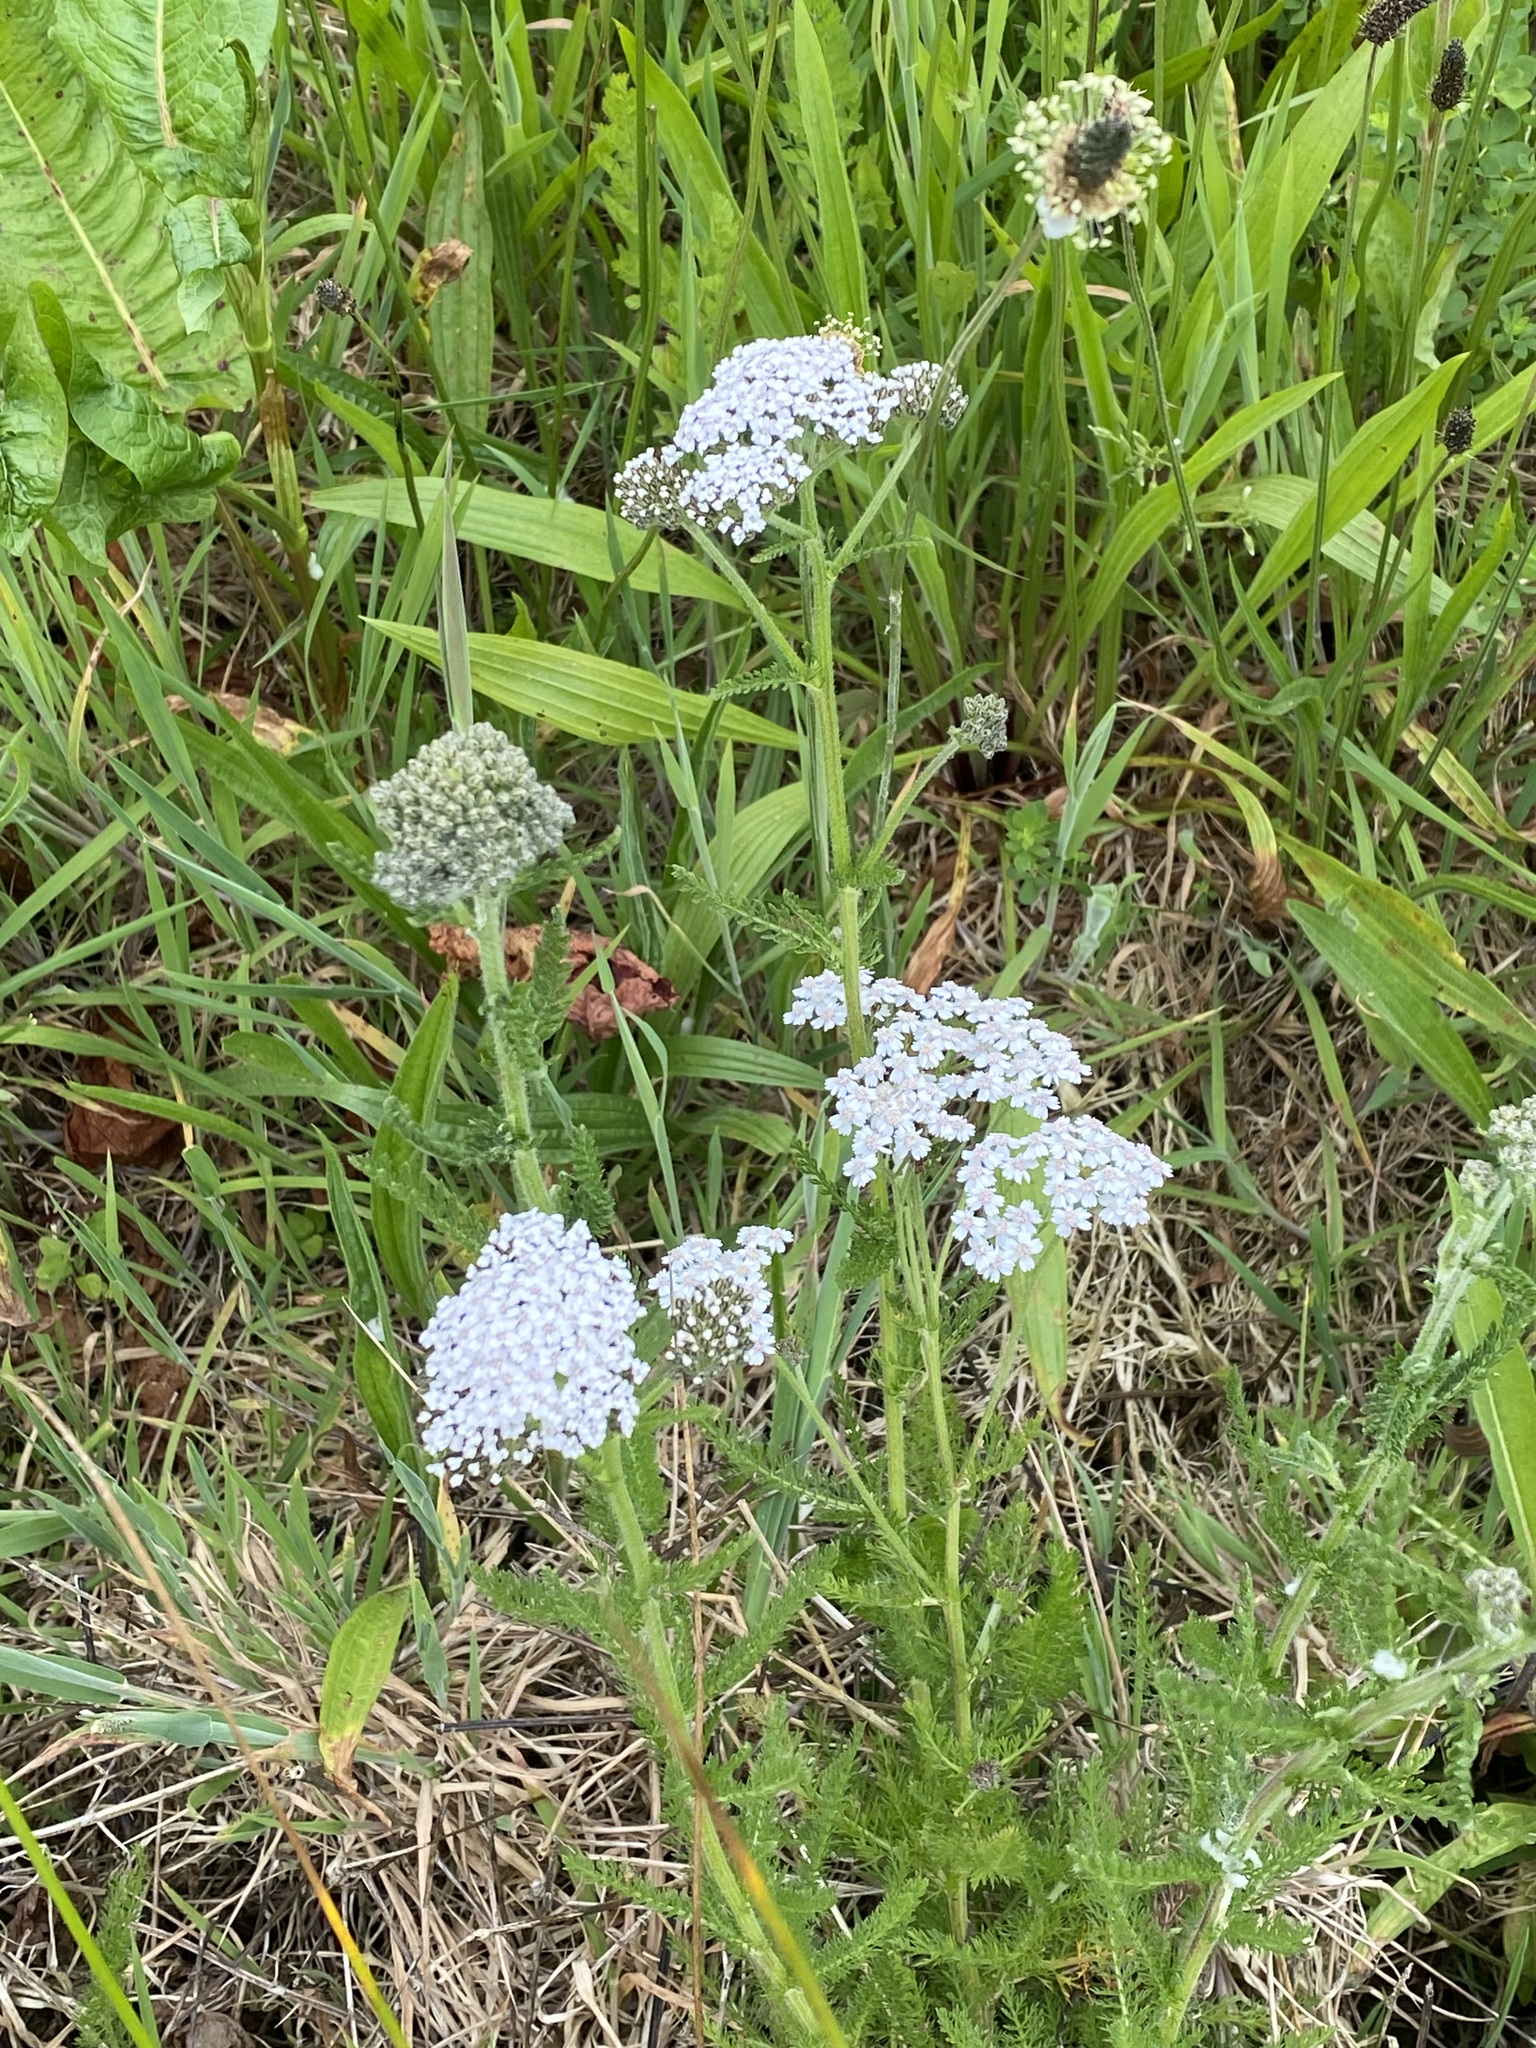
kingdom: Plantae
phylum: Tracheophyta
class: Magnoliopsida
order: Asterales
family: Asteraceae
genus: Achillea
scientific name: Achillea millefolium
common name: Yarrow
